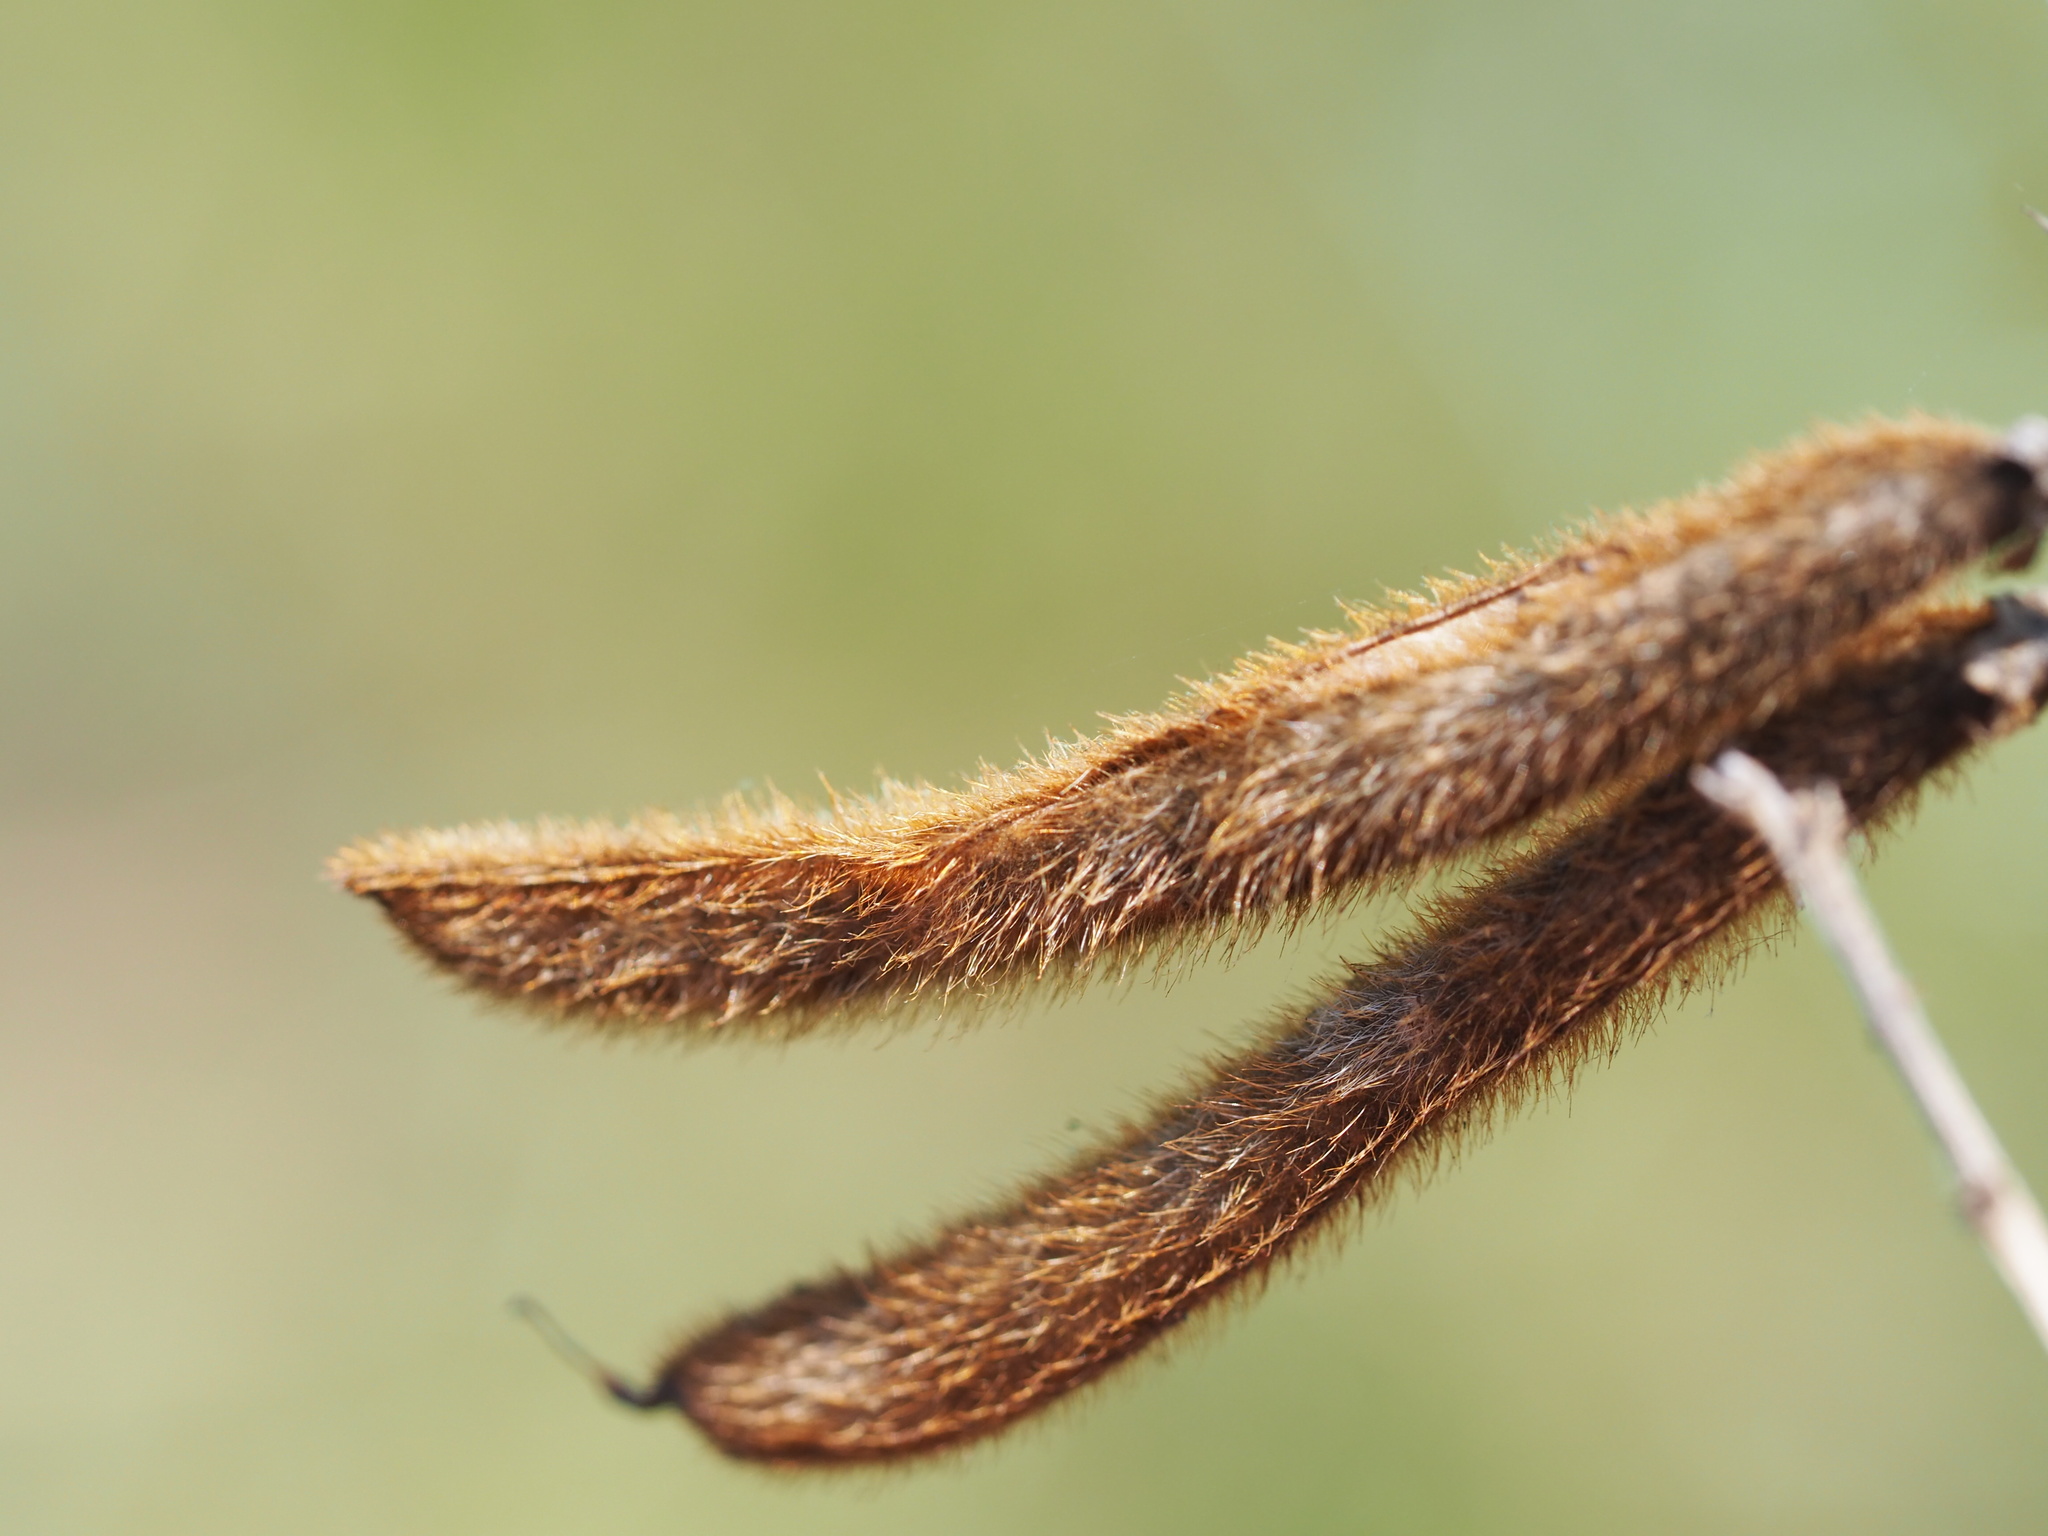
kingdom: Plantae
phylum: Tracheophyta
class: Magnoliopsida
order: Fabales
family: Fabaceae
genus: Tephrosia
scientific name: Tephrosia noctiflora
